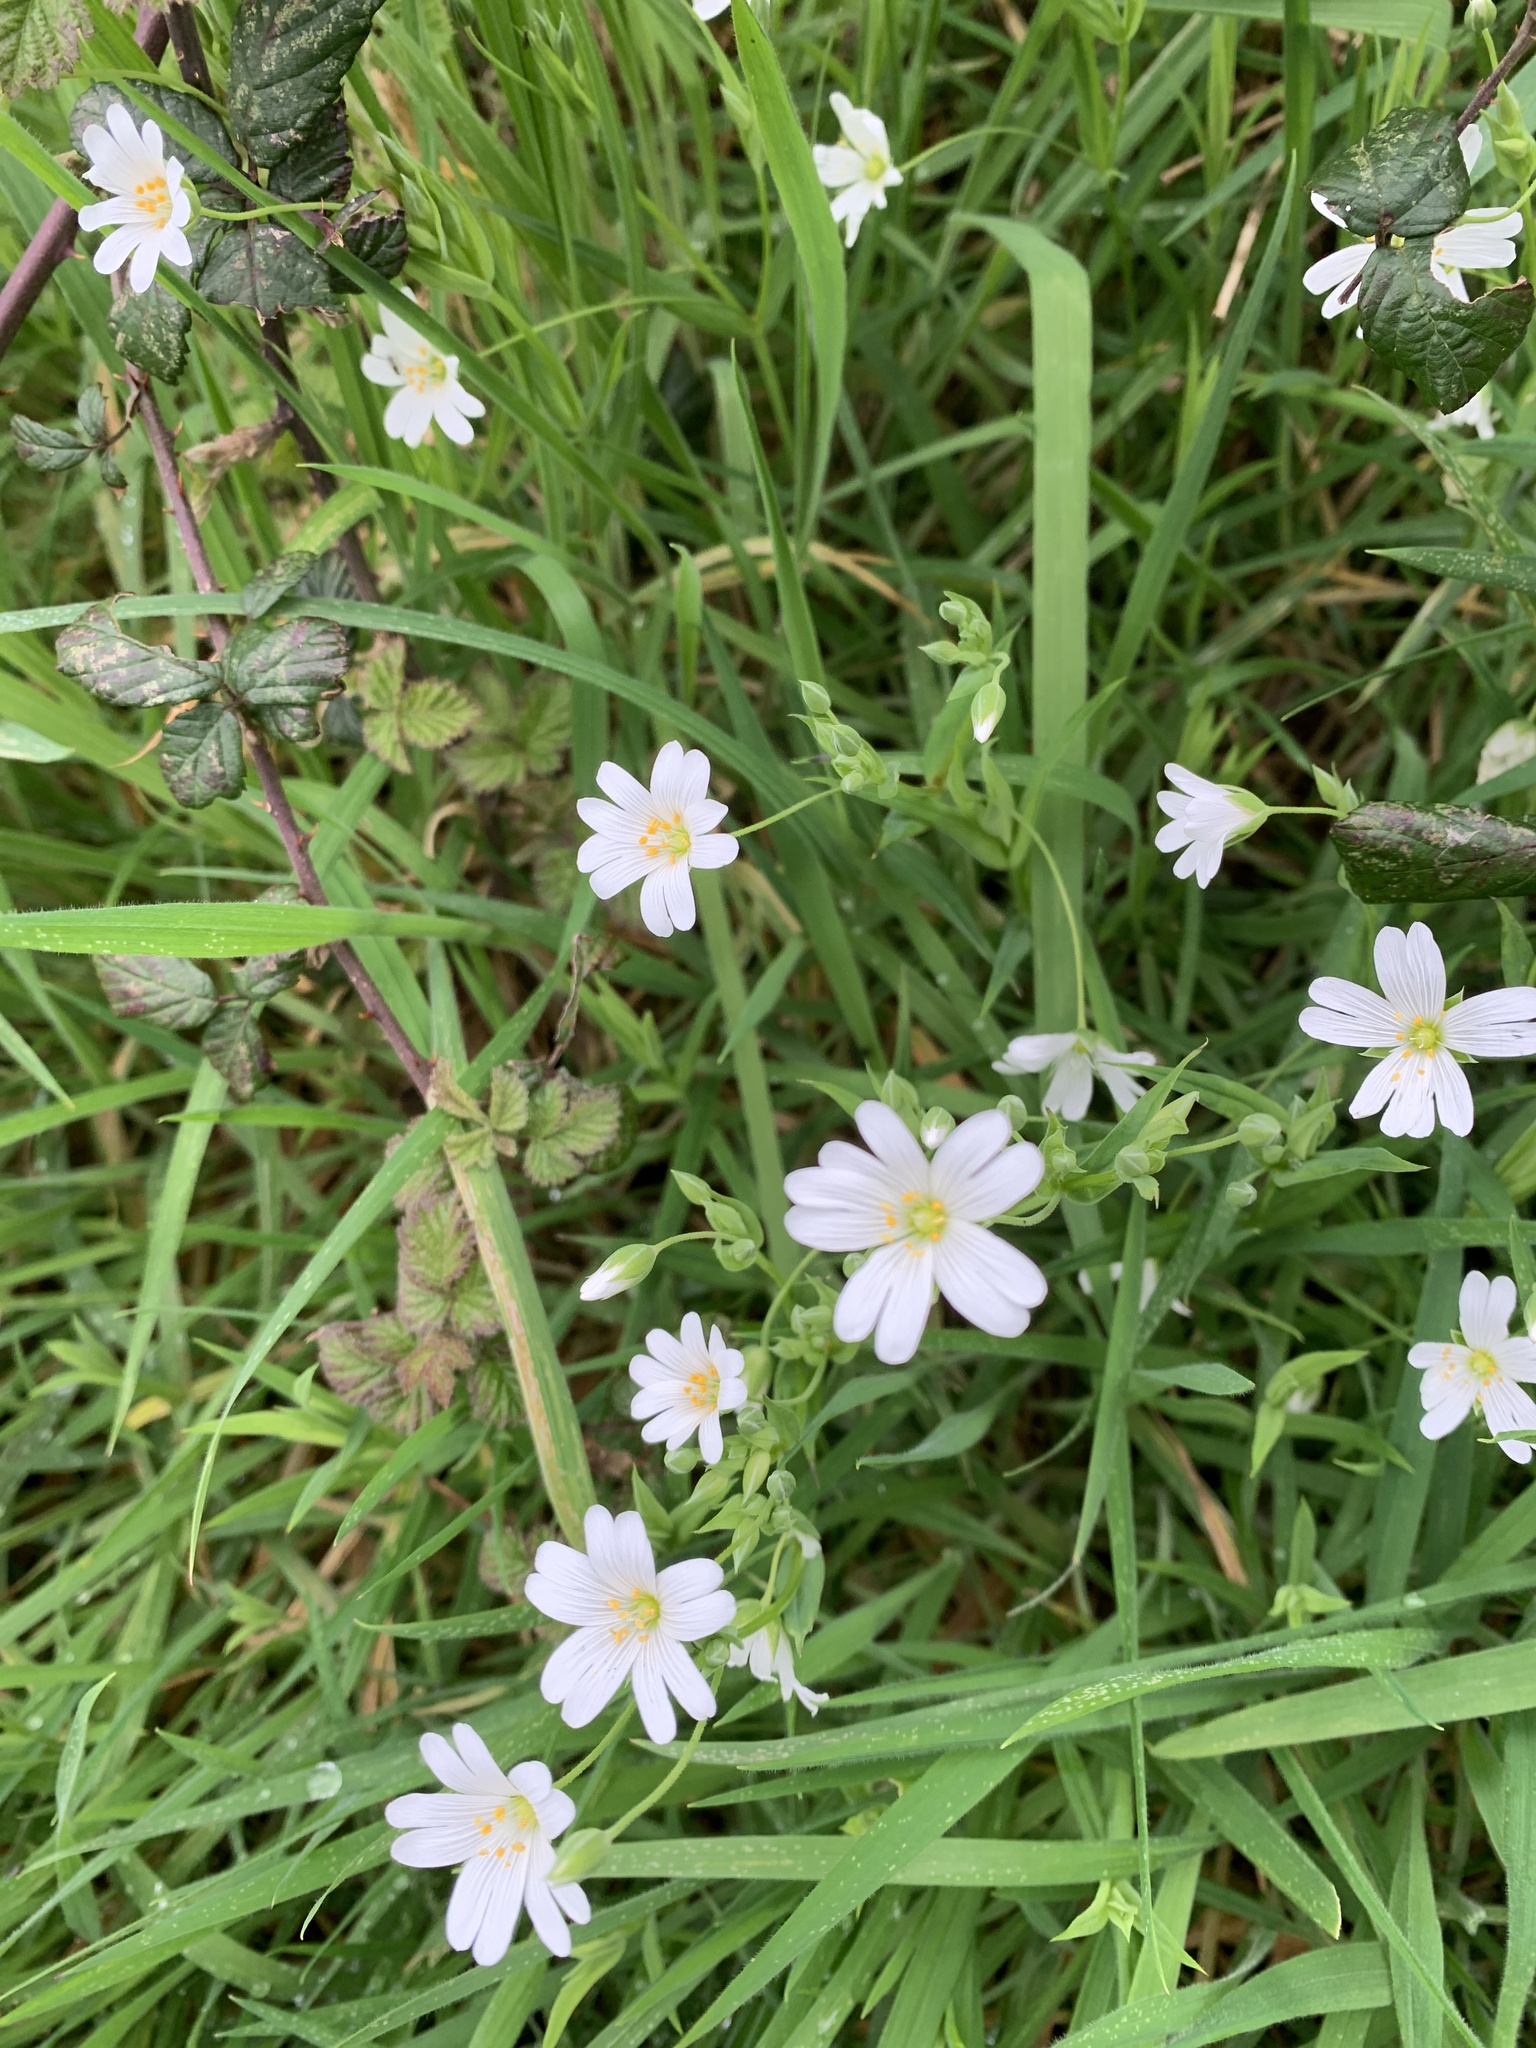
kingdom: Plantae
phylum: Tracheophyta
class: Magnoliopsida
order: Caryophyllales
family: Caryophyllaceae
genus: Rabelera
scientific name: Rabelera holostea
